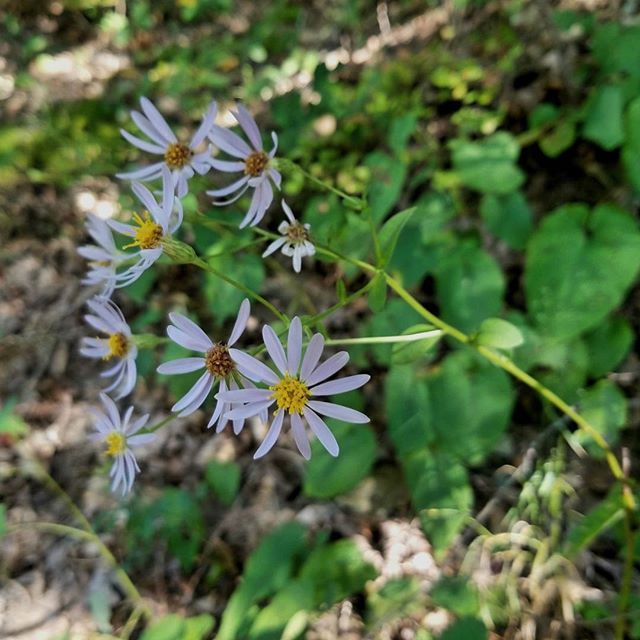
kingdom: Plantae
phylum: Tracheophyta
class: Magnoliopsida
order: Asterales
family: Asteraceae
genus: Eurybia
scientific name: Eurybia macrophylla
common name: Big-leaved aster
